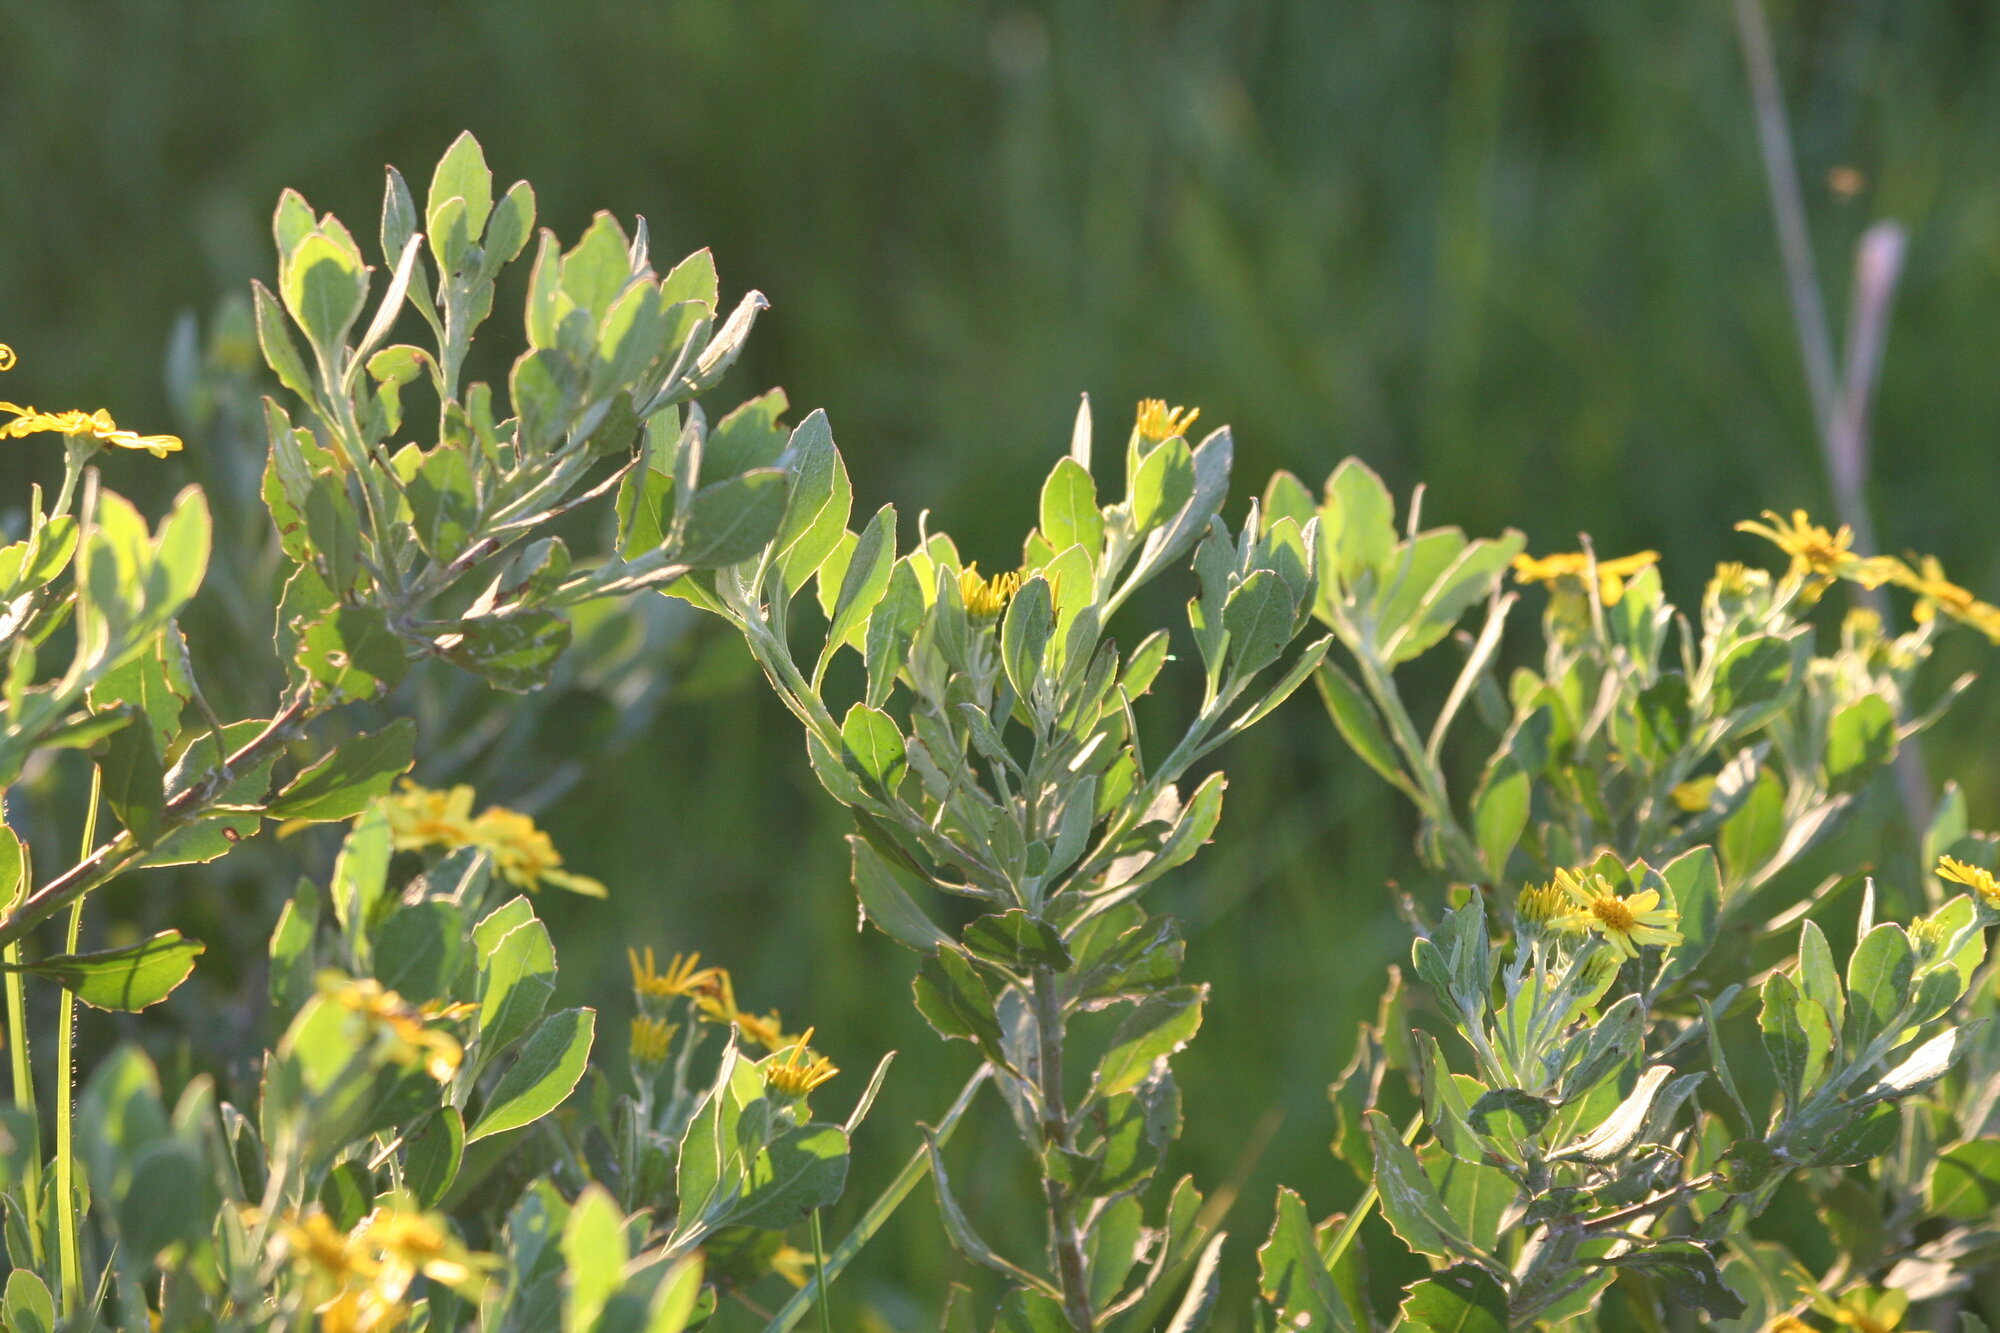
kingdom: Plantae
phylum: Tracheophyta
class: Magnoliopsida
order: Asterales
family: Asteraceae
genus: Osteospermum
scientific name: Osteospermum moniliferum
